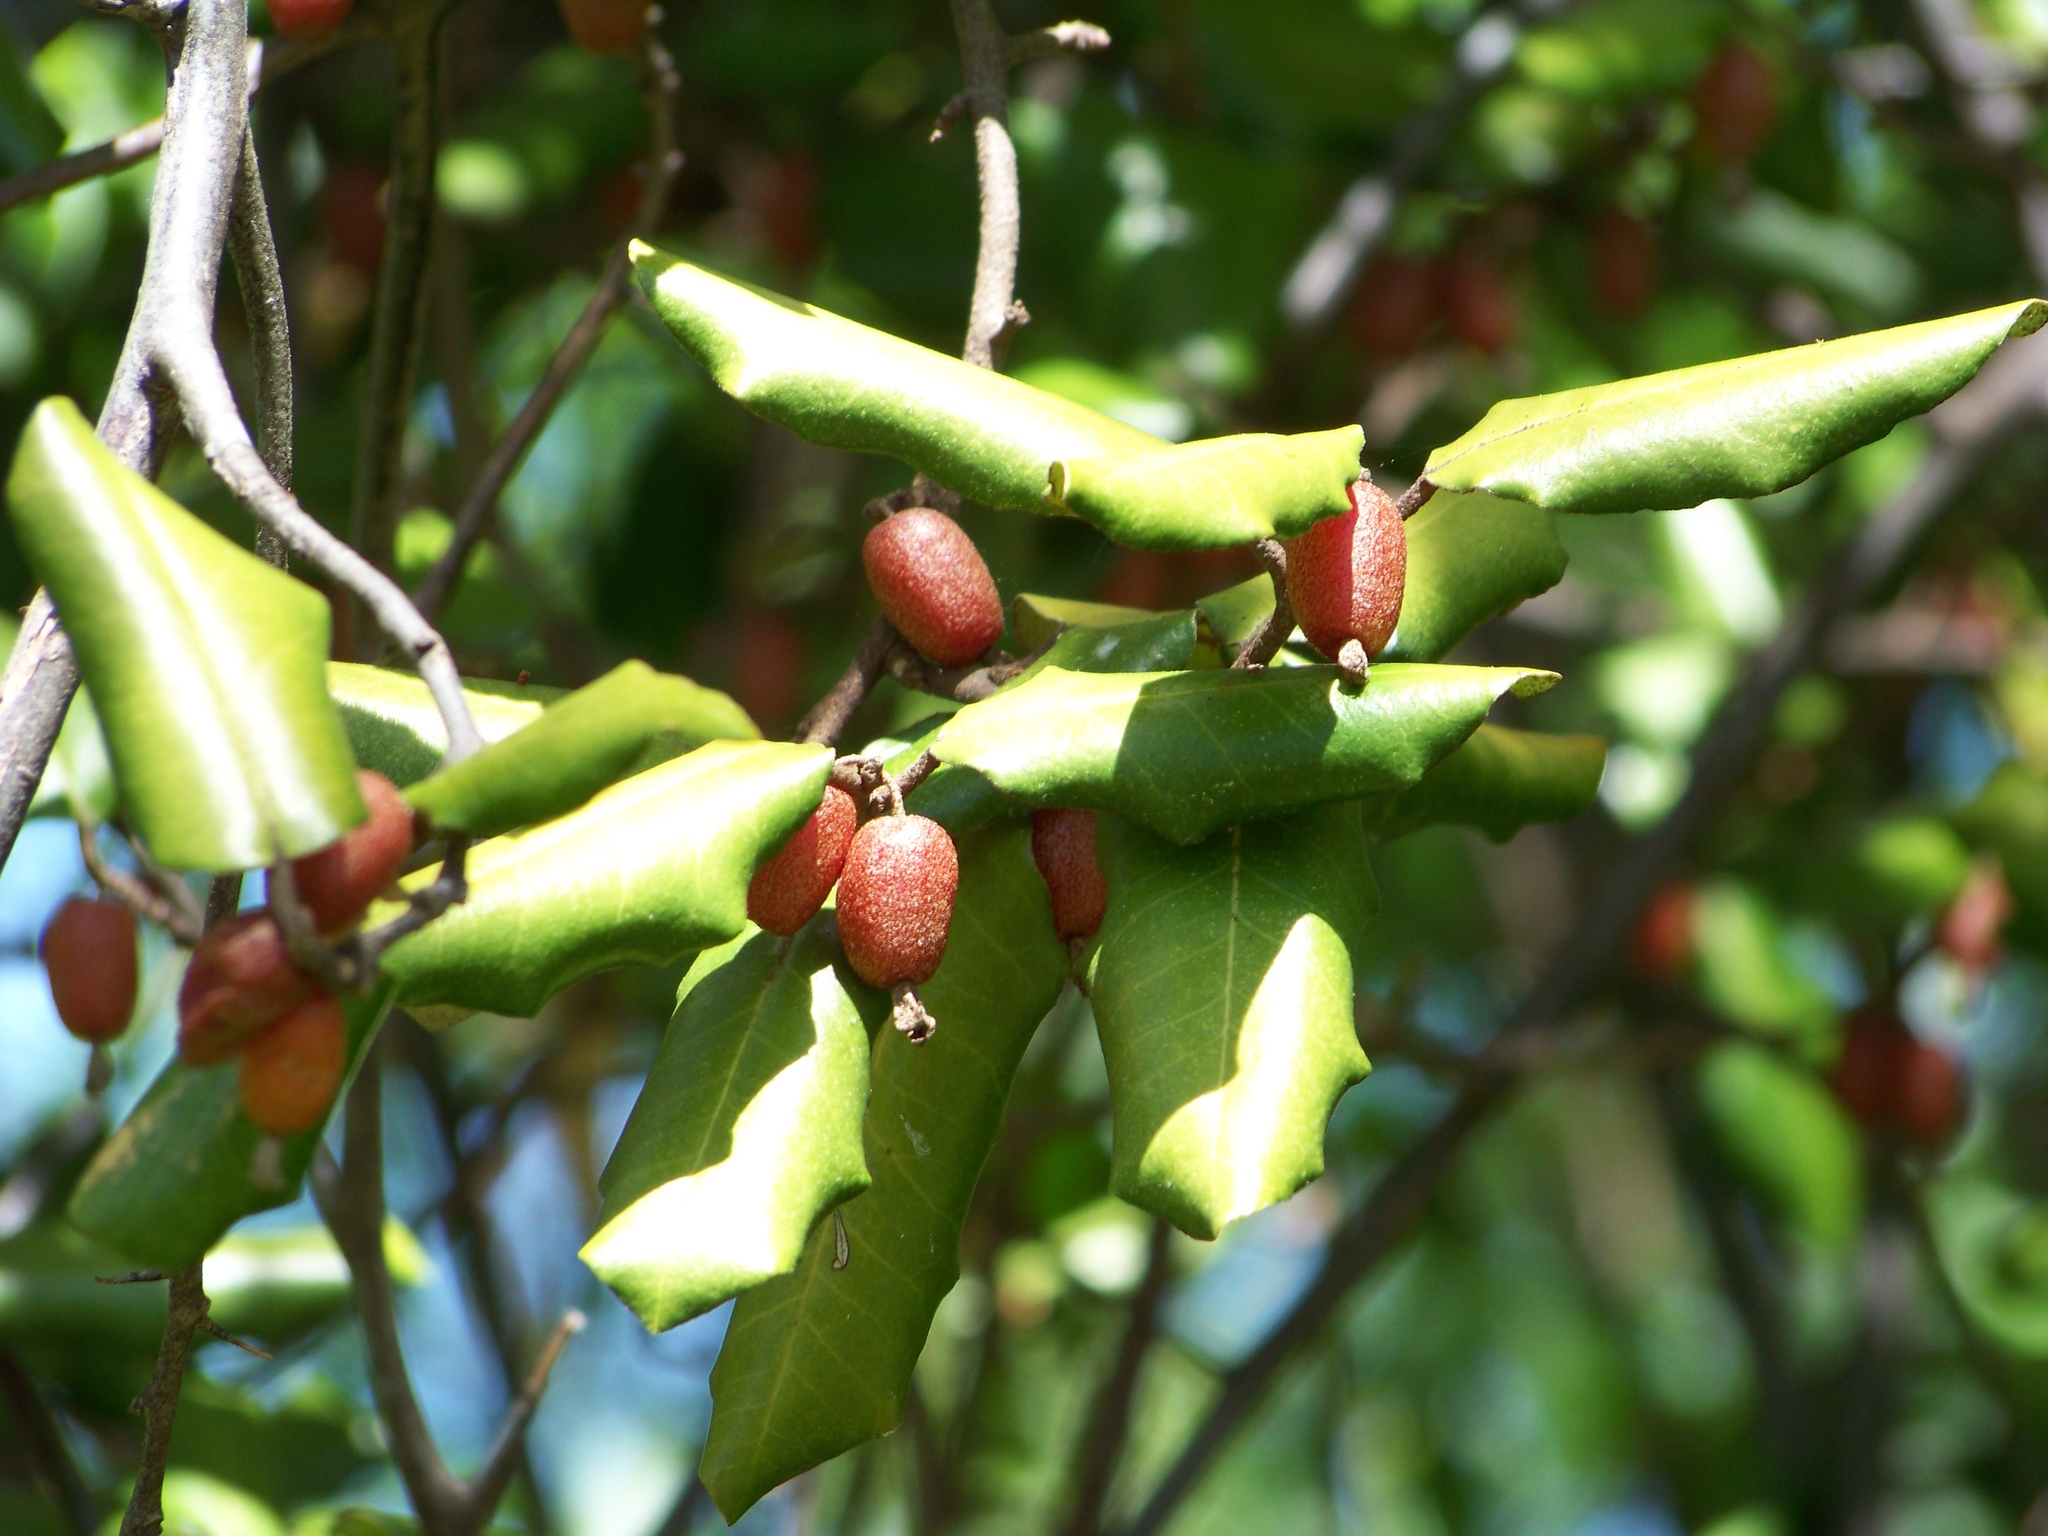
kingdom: Plantae
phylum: Tracheophyta
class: Magnoliopsida
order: Rosales
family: Elaeagnaceae
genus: Elaeagnus
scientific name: Elaeagnus pungens
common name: Spiny oleaster
